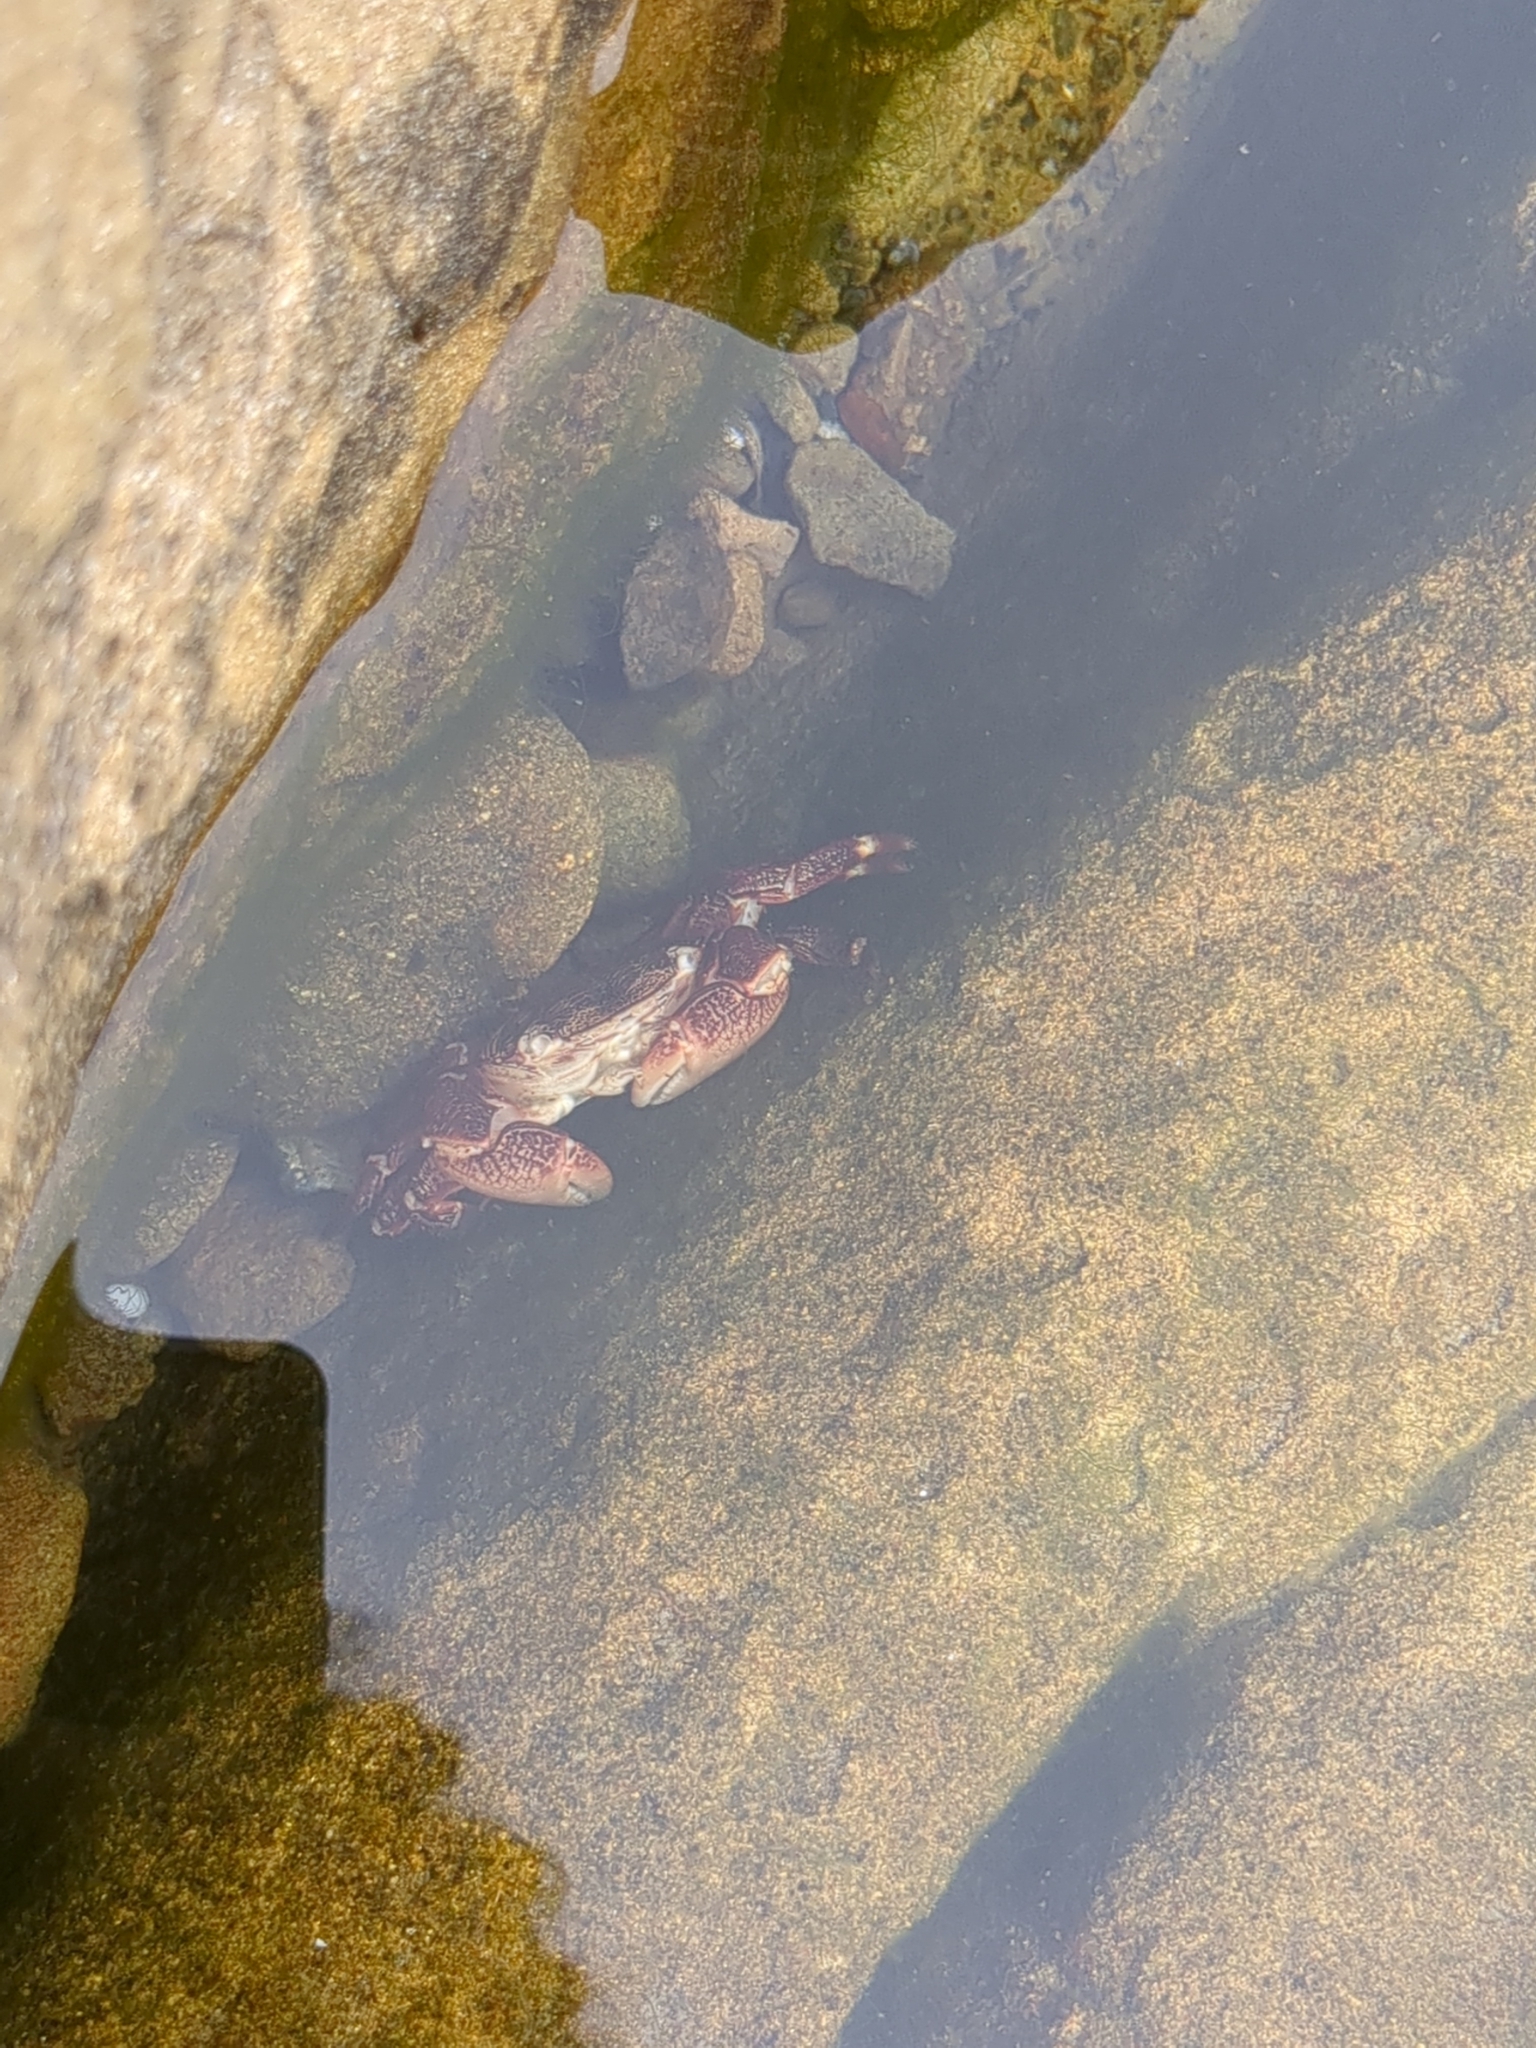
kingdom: Animalia
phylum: Arthropoda
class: Malacostraca
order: Decapoda
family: Grapsidae
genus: Pachygrapsus
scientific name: Pachygrapsus crassipes
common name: Striped shore crab
